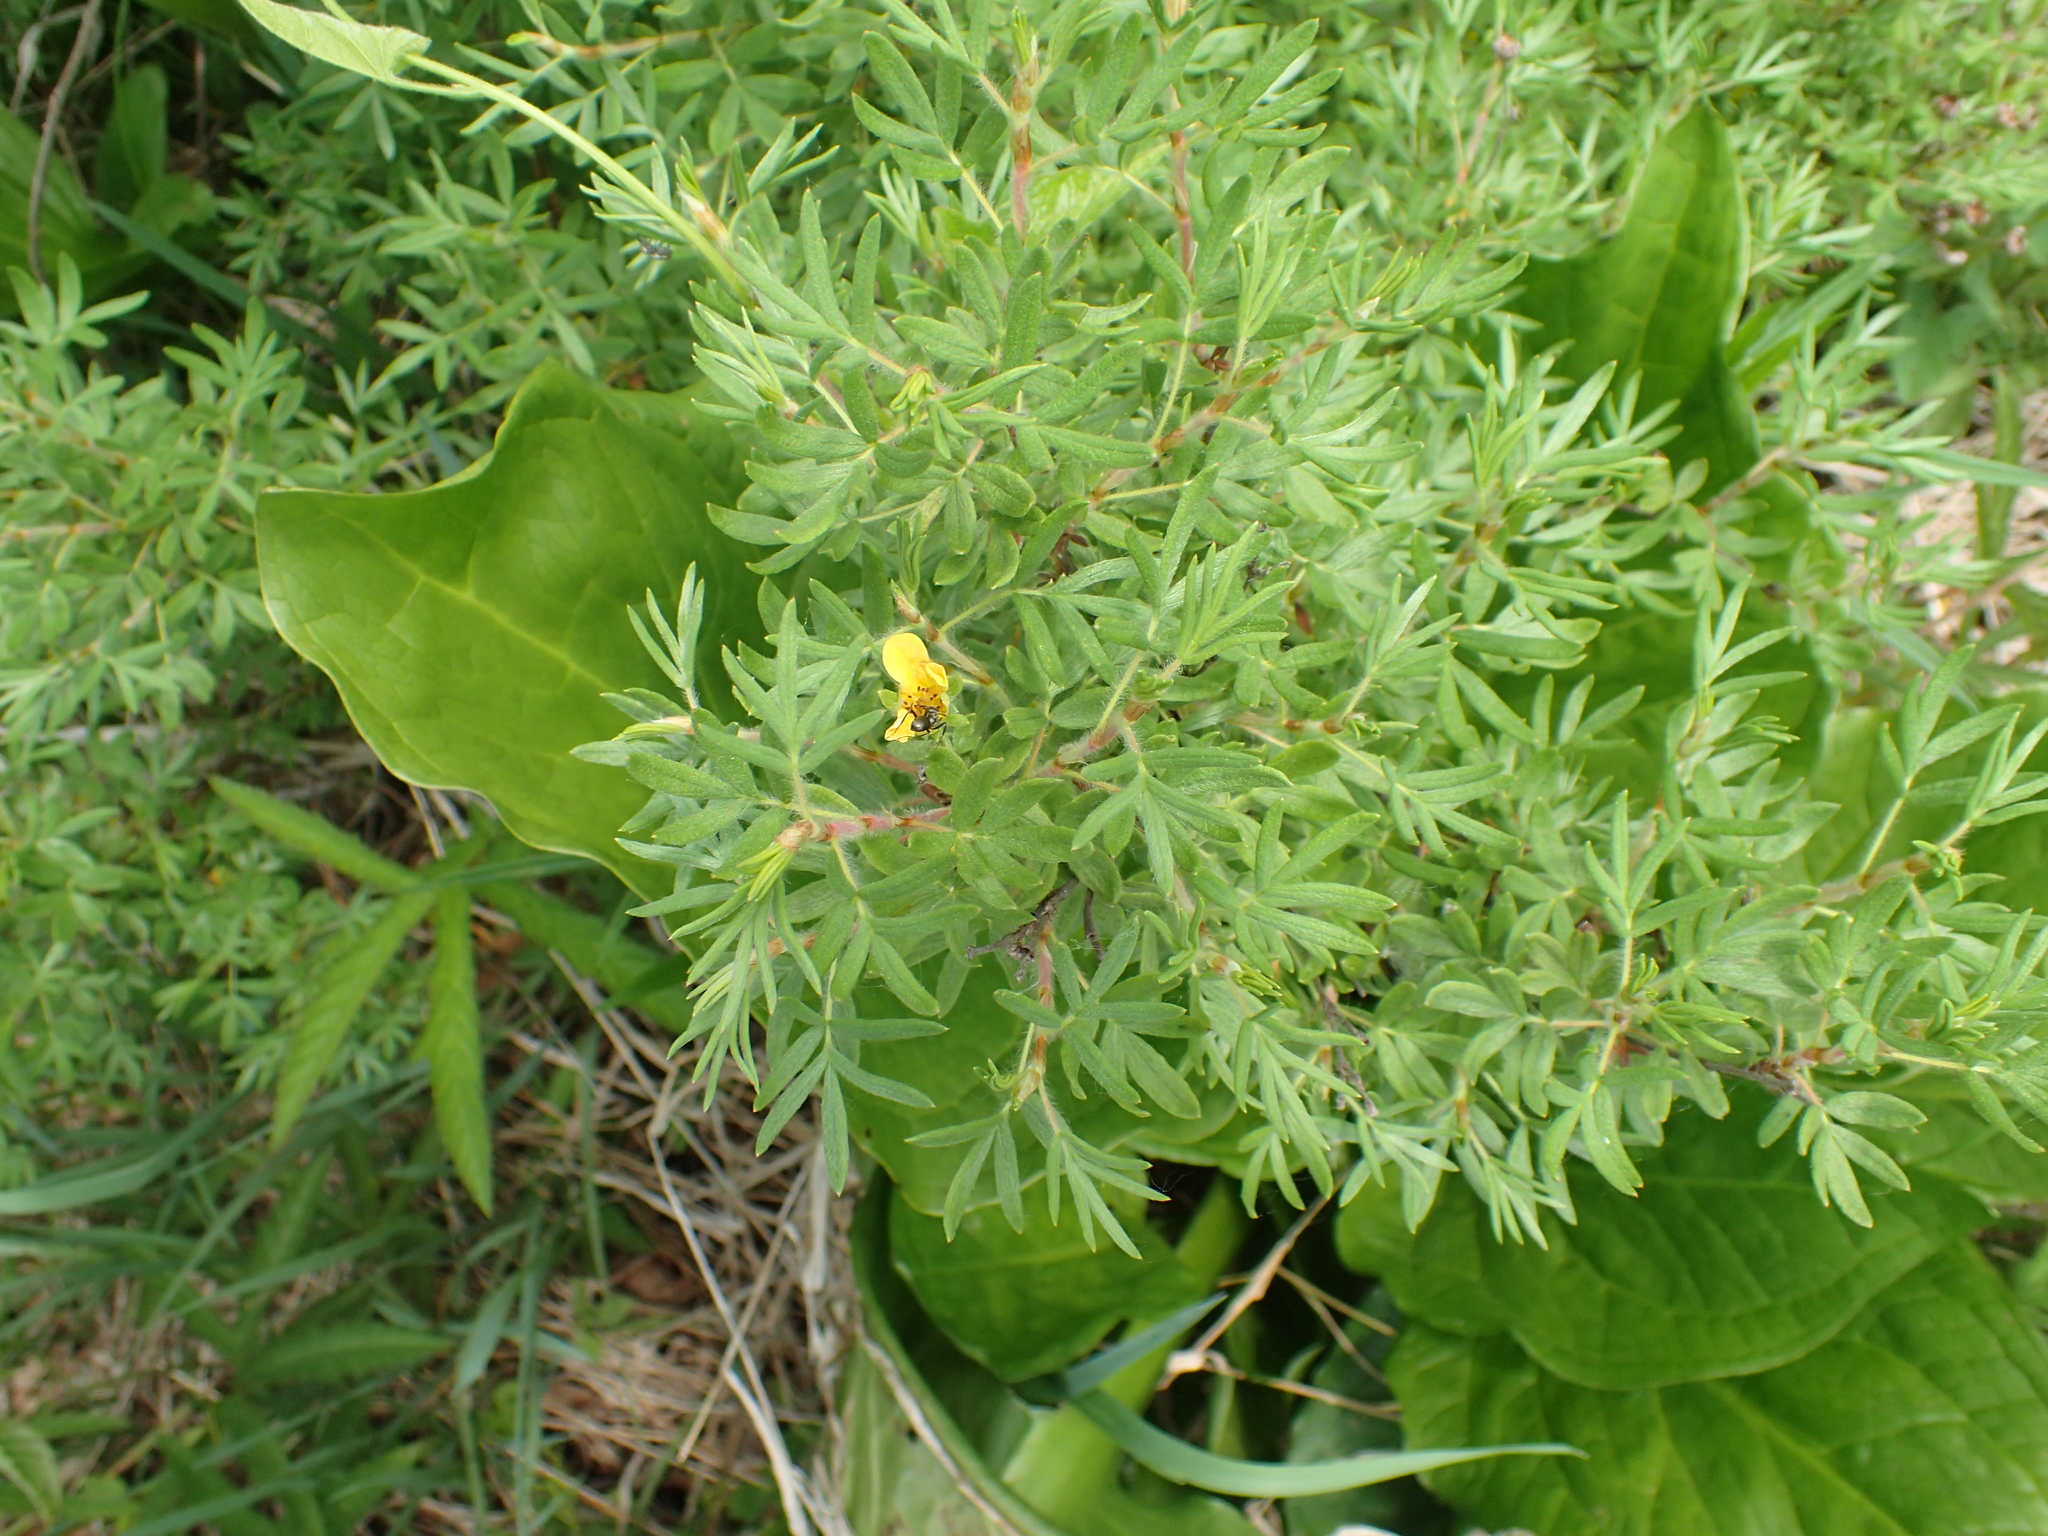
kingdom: Plantae
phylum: Tracheophyta
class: Magnoliopsida
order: Rosales
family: Rosaceae
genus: Dasiphora
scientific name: Dasiphora fruticosa
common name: Shrubby cinquefoil
